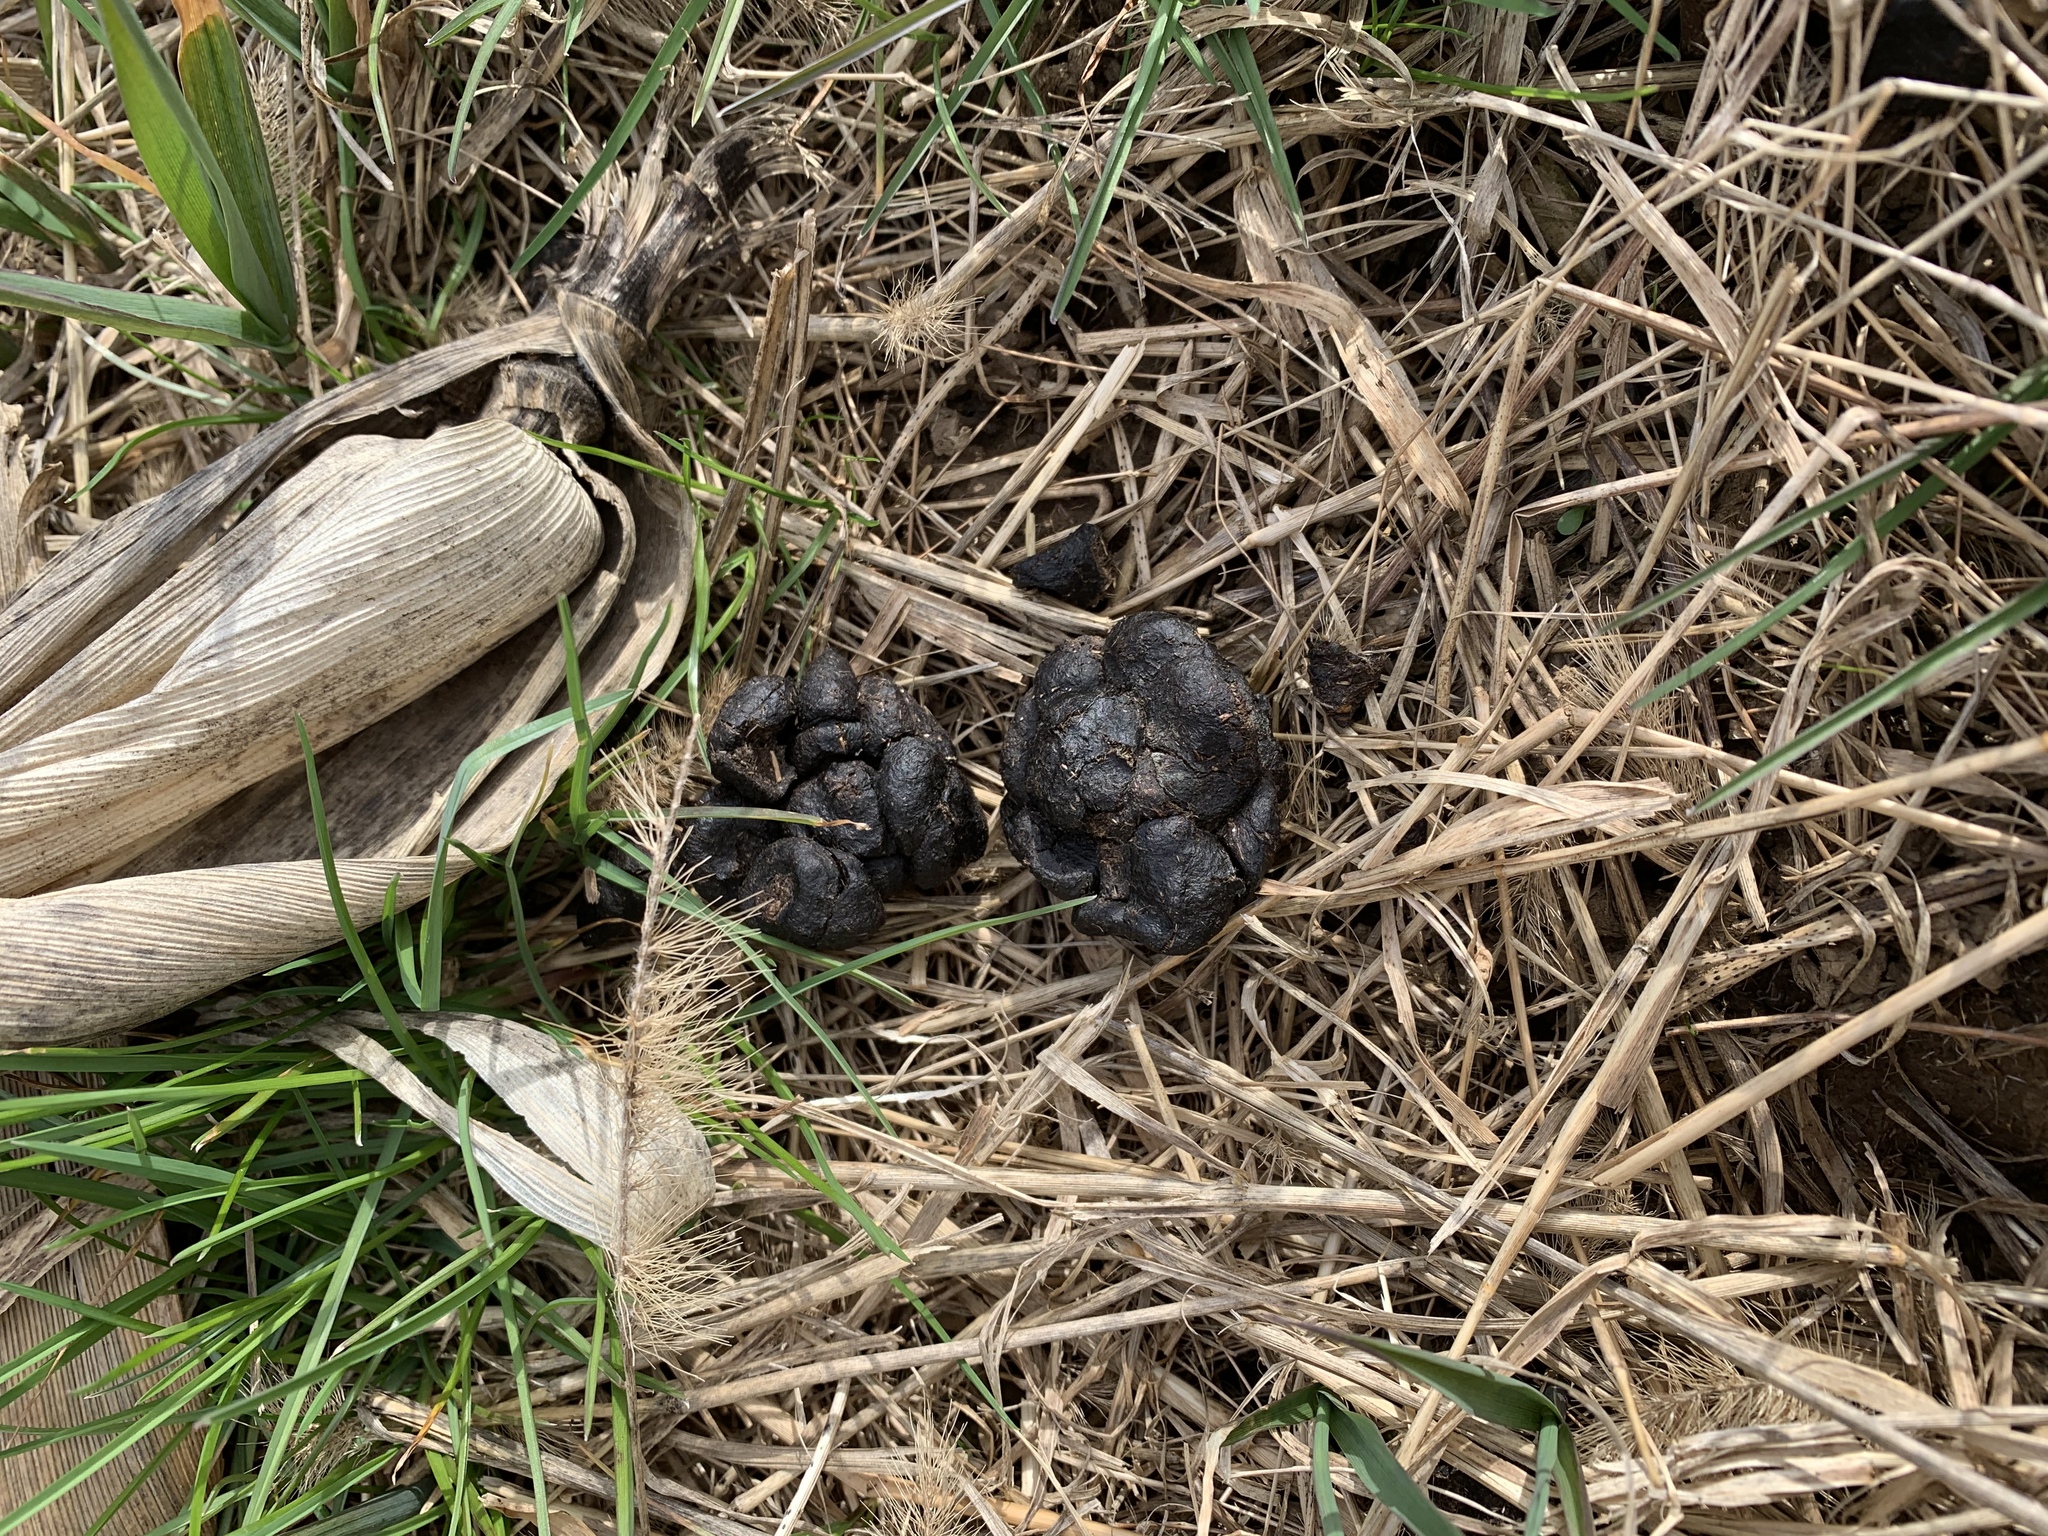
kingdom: Animalia
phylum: Chordata
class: Mammalia
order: Artiodactyla
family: Cervidae
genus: Odocoileus
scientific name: Odocoileus virginianus
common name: White-tailed deer
